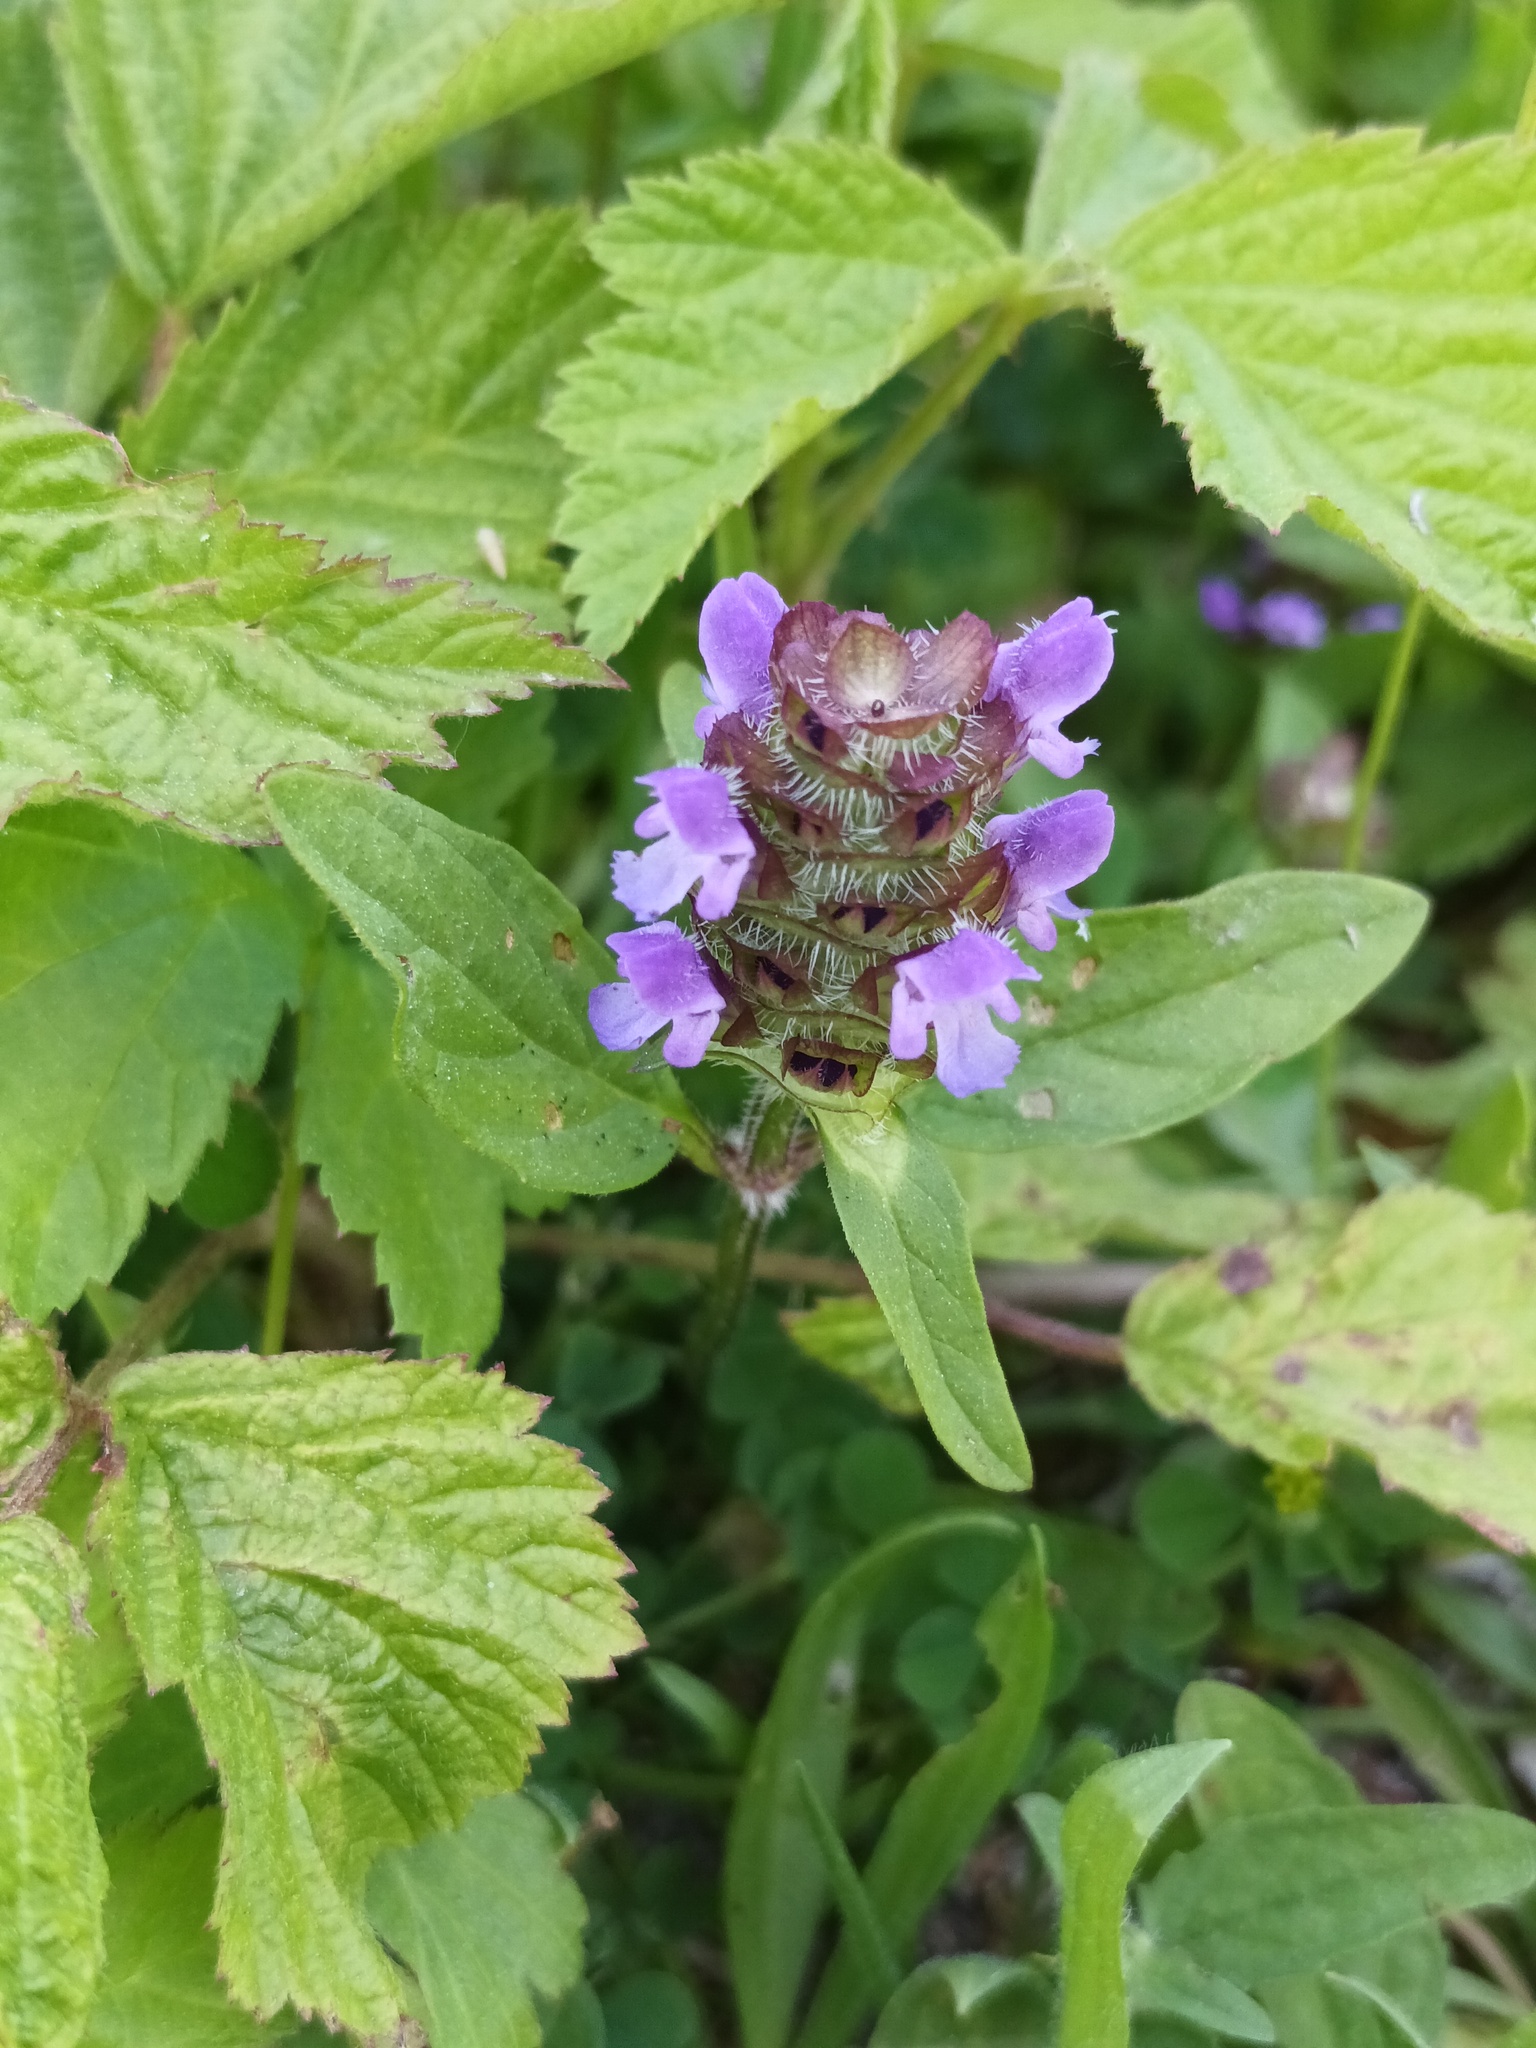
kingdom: Plantae
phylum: Tracheophyta
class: Magnoliopsida
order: Lamiales
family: Lamiaceae
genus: Prunella
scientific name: Prunella vulgaris
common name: Heal-all
